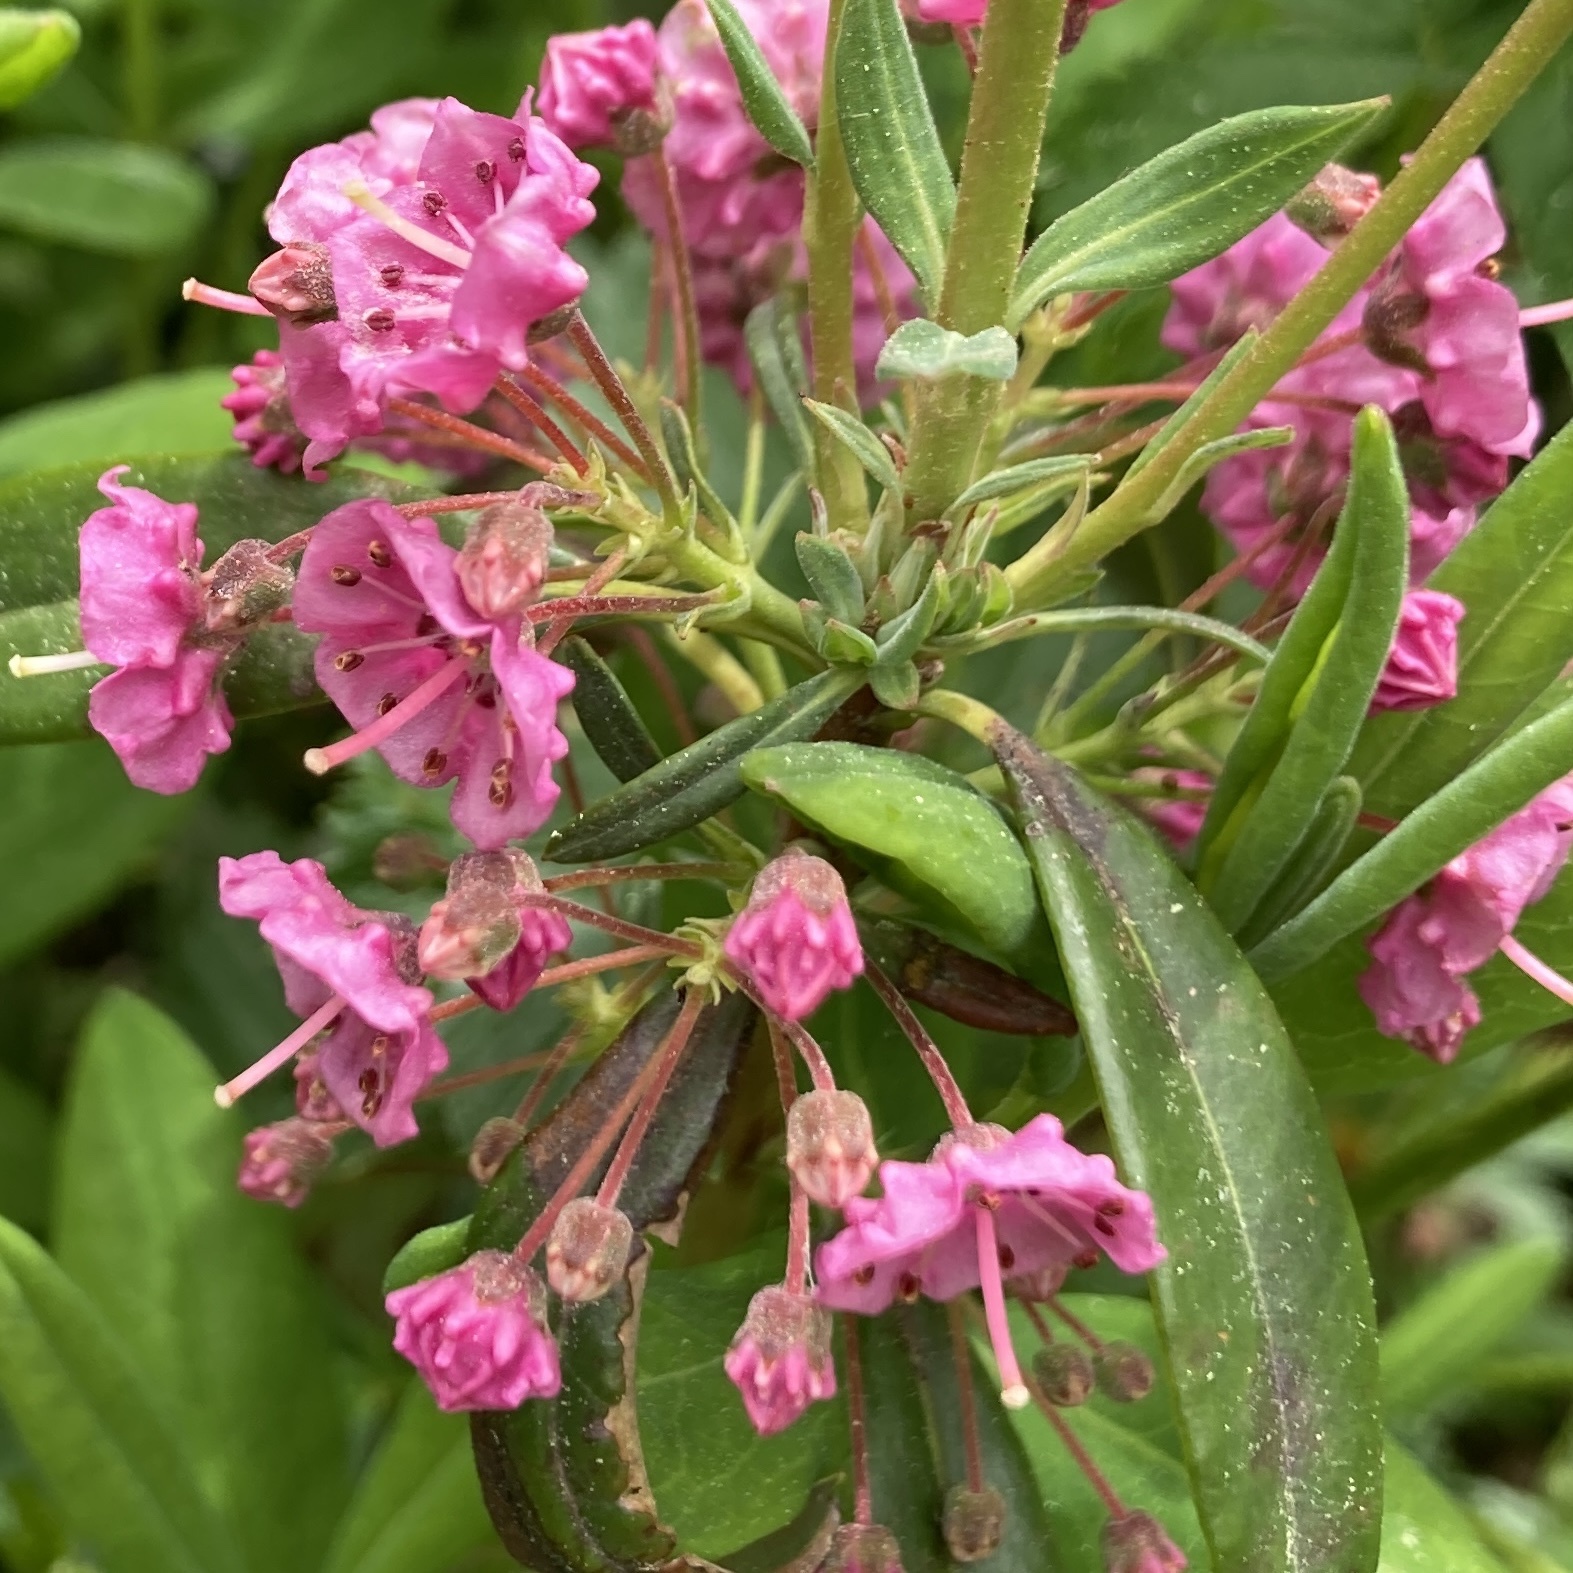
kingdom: Plantae
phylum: Tracheophyta
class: Magnoliopsida
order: Ericales
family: Ericaceae
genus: Kalmia
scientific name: Kalmia angustifolia
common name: Sheep-laurel
